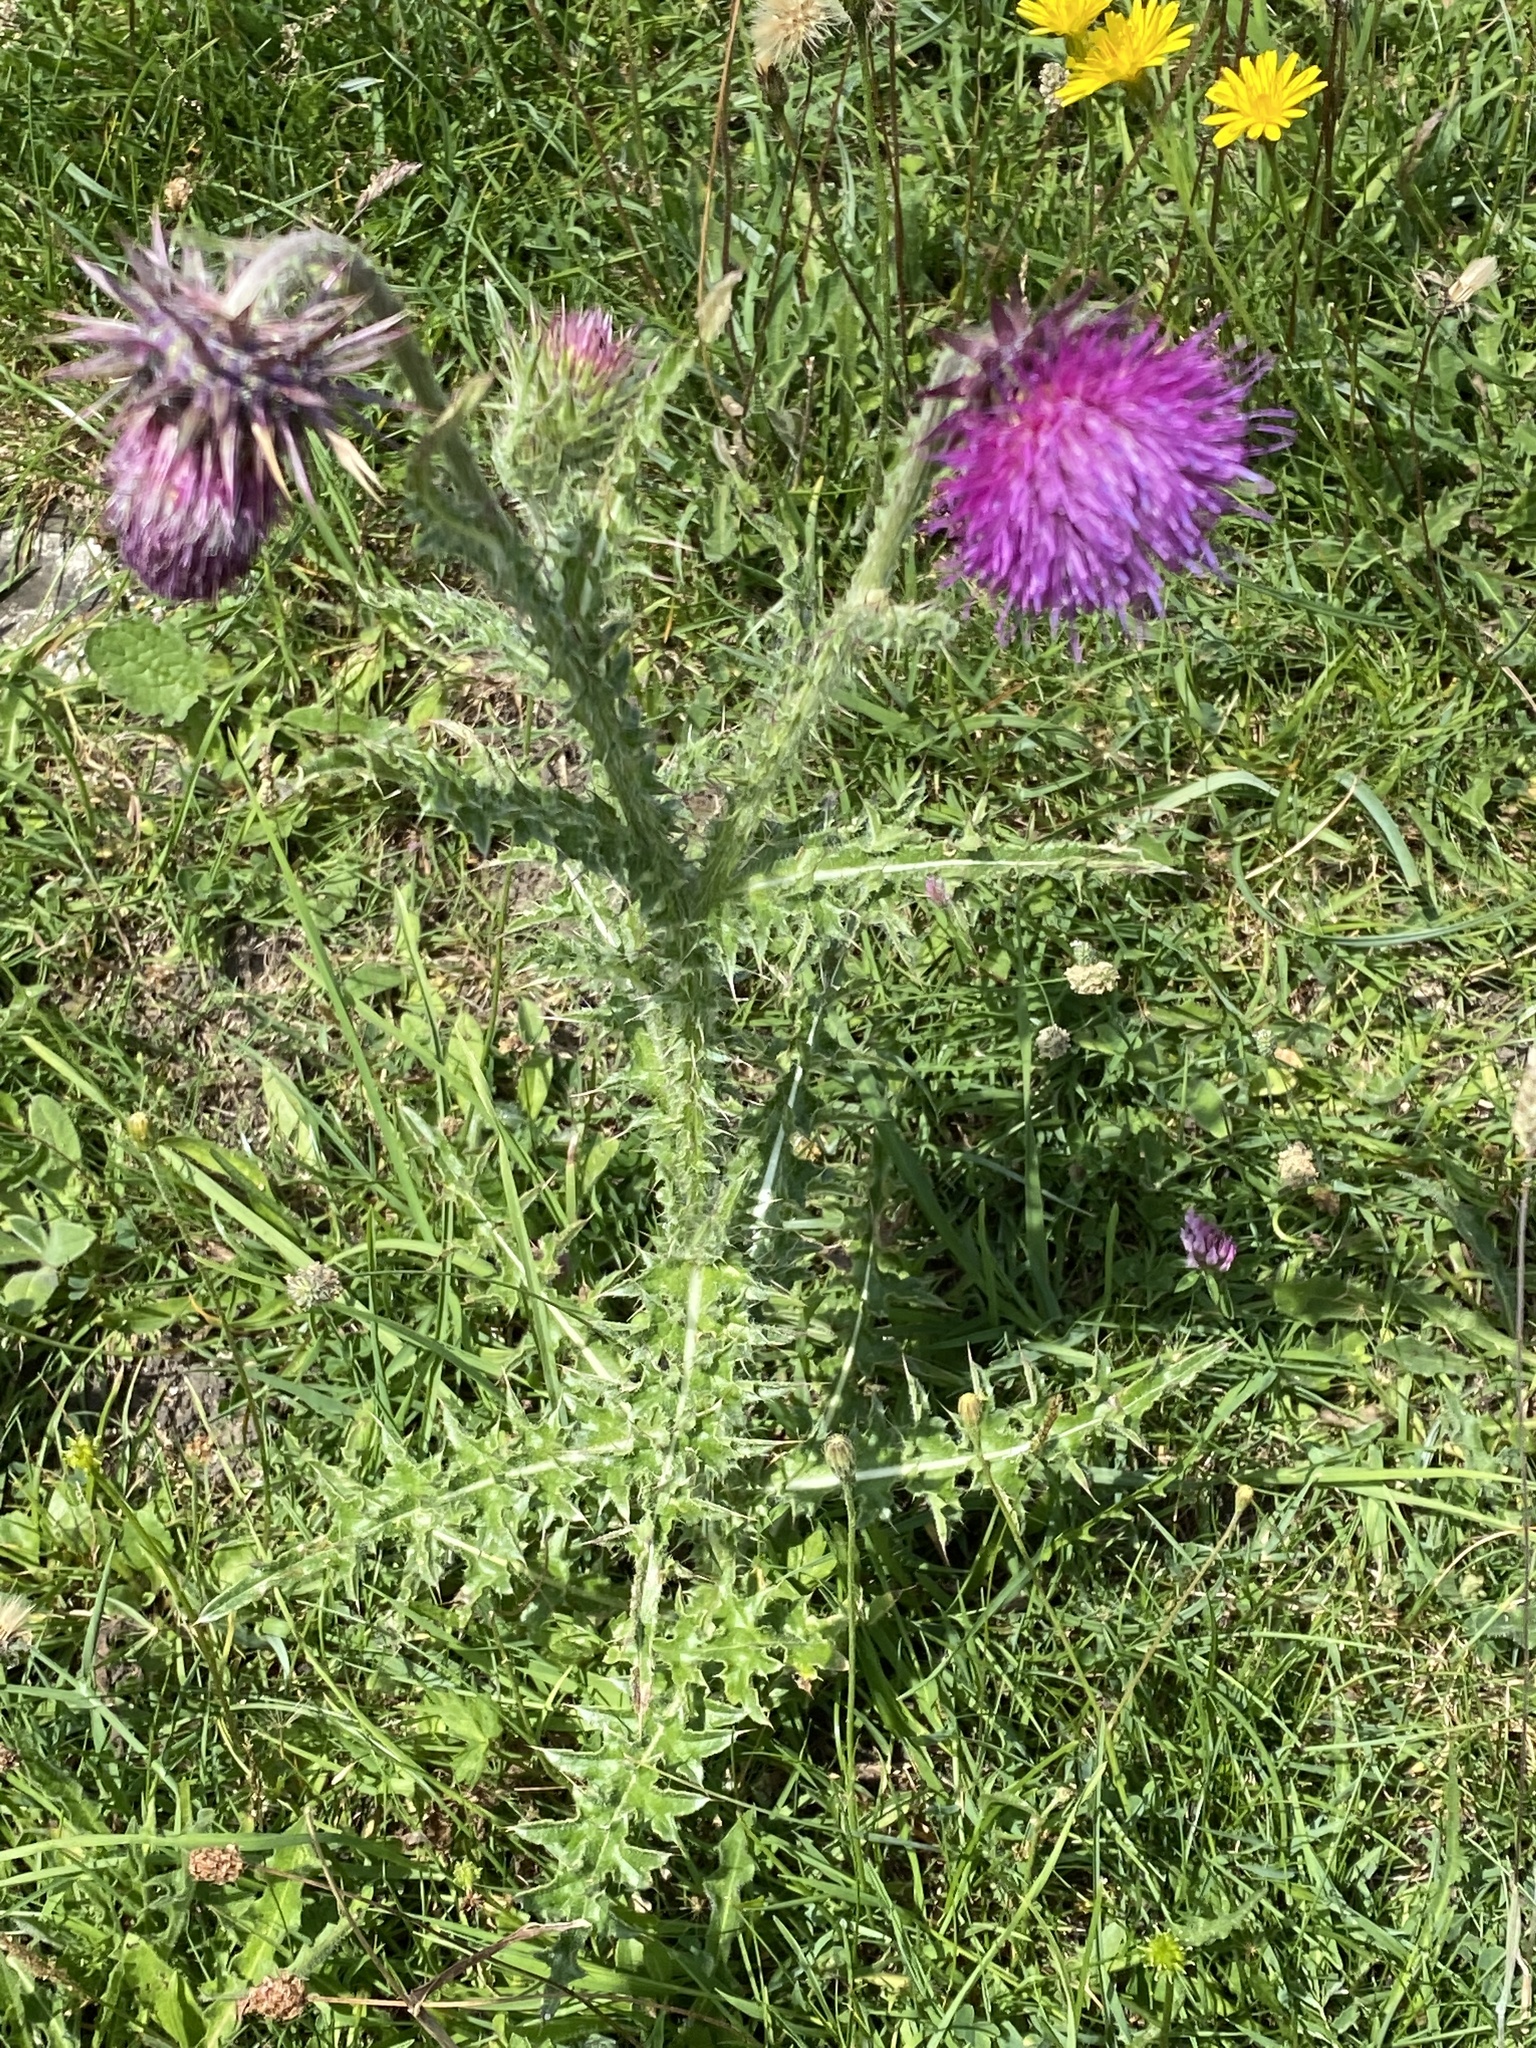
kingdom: Plantae
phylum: Tracheophyta
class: Magnoliopsida
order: Asterales
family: Asteraceae
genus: Carduus
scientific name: Carduus nutans
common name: Musk thistle
